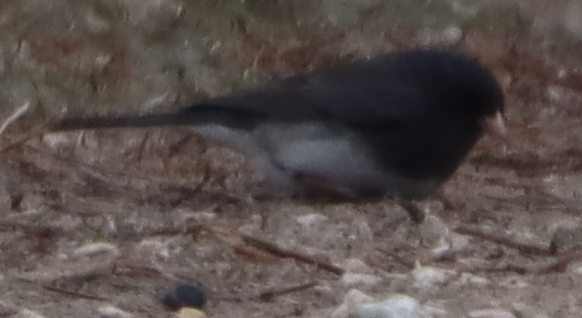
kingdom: Animalia
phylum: Chordata
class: Aves
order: Passeriformes
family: Passerellidae
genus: Junco
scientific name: Junco hyemalis
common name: Dark-eyed junco
